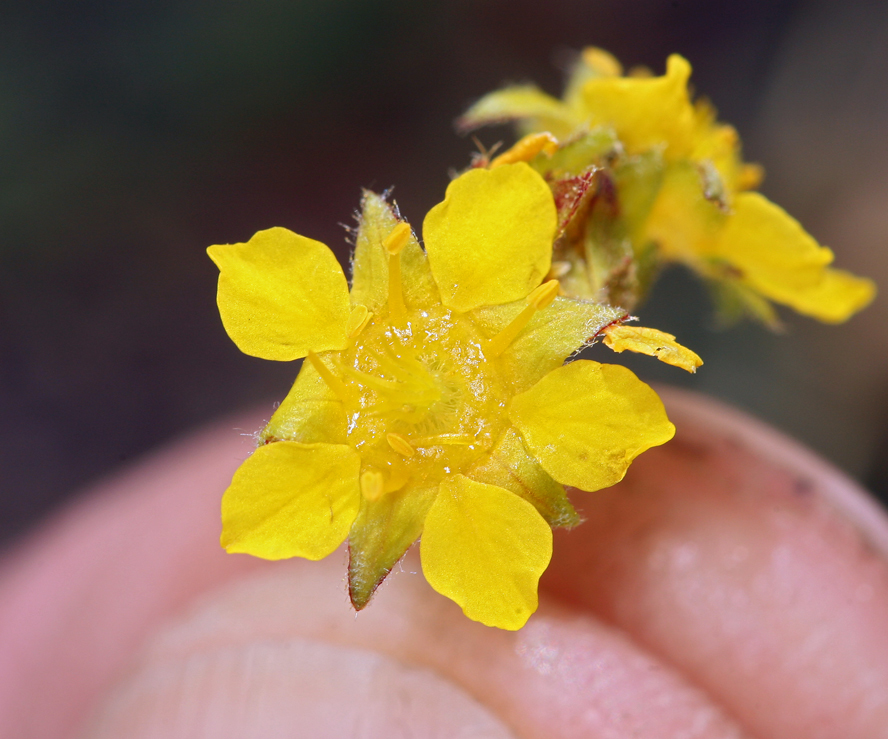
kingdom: Plantae
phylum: Tracheophyta
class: Magnoliopsida
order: Rosales
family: Rosaceae
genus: Potentilla
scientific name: Potentilla lycopodioides
